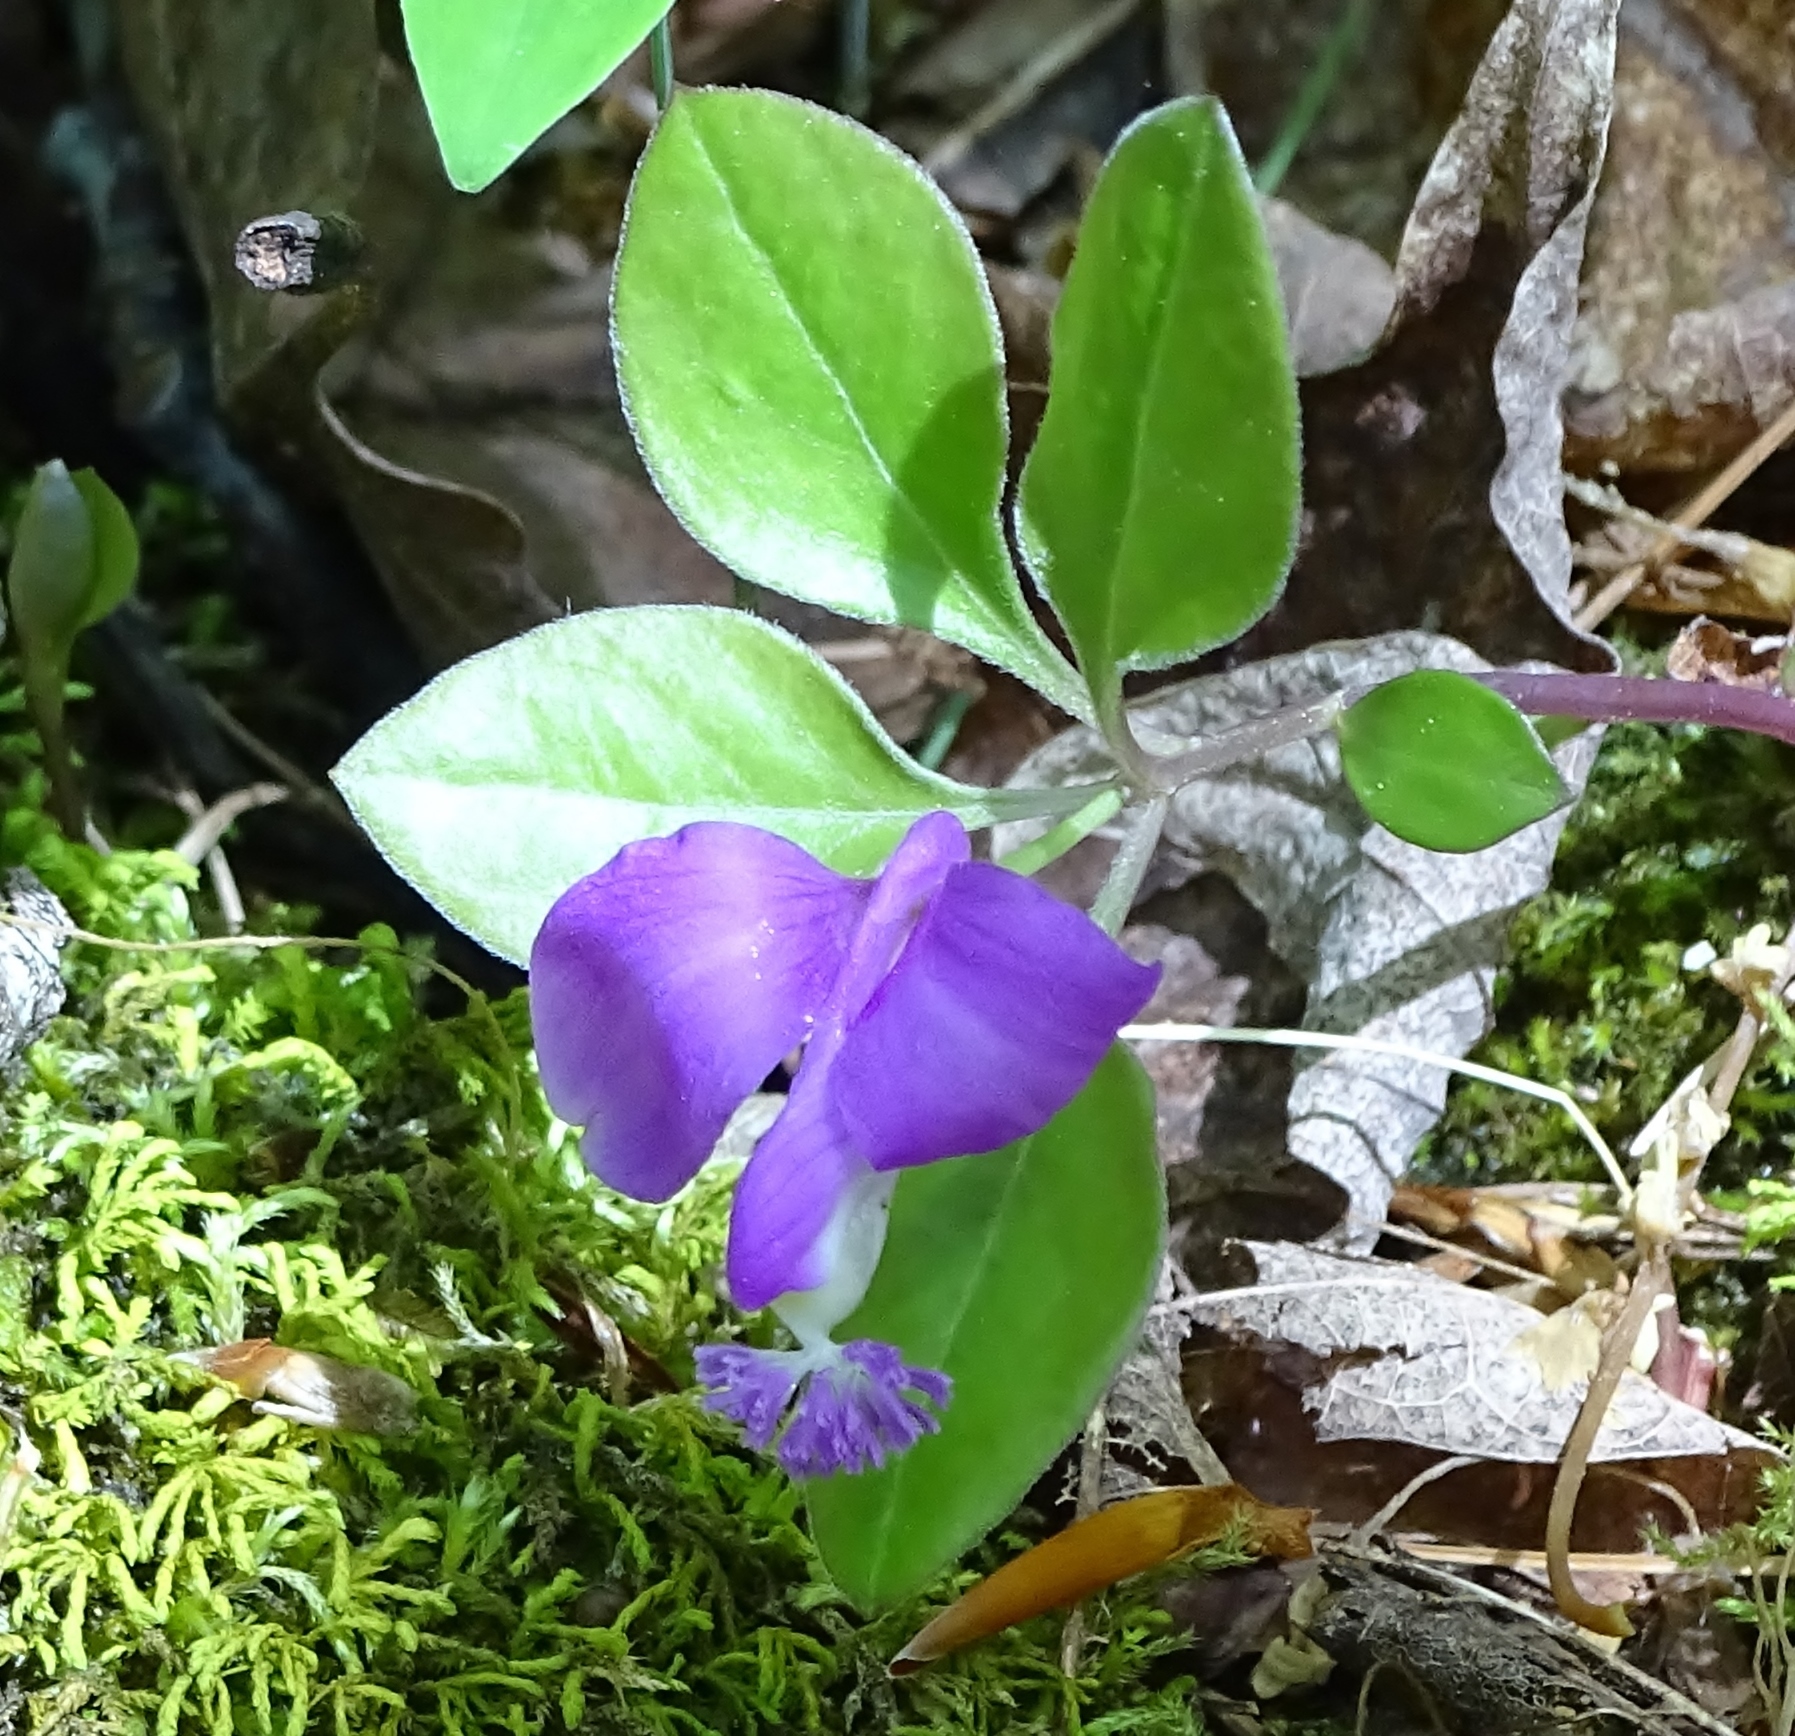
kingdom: Plantae
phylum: Tracheophyta
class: Magnoliopsida
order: Fabales
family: Polygalaceae
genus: Polygaloides
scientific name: Polygaloides paucifolia
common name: Bird-on-the-wing
